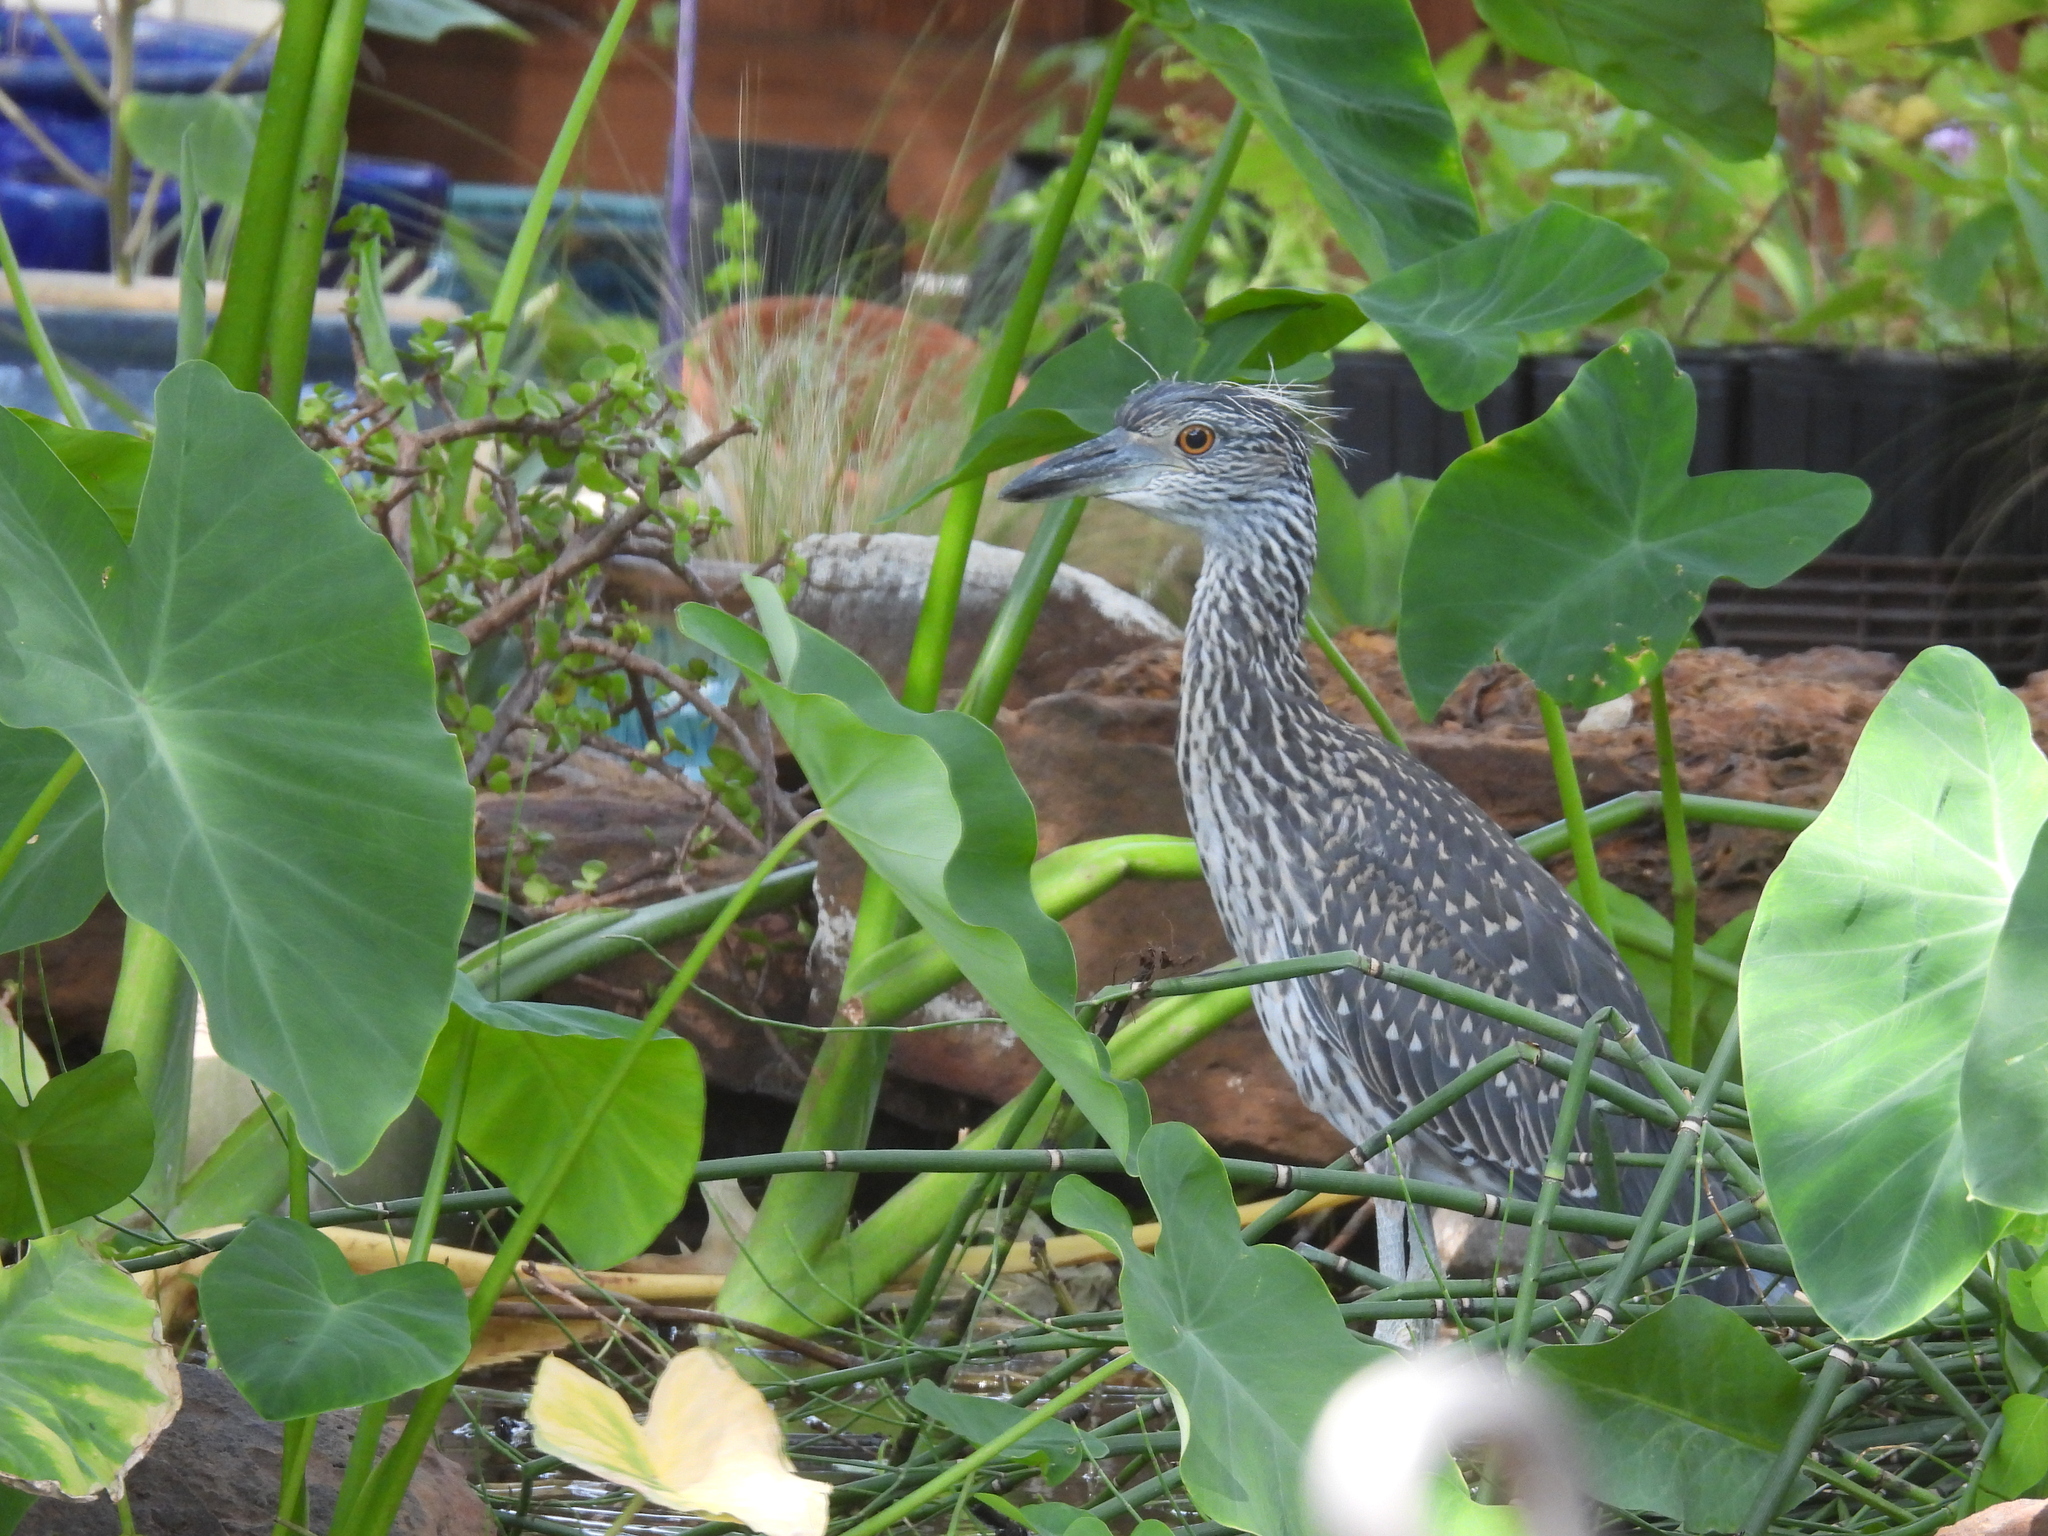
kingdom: Animalia
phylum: Chordata
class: Aves
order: Pelecaniformes
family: Ardeidae
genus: Nyctanassa
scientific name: Nyctanassa violacea
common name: Yellow-crowned night heron
